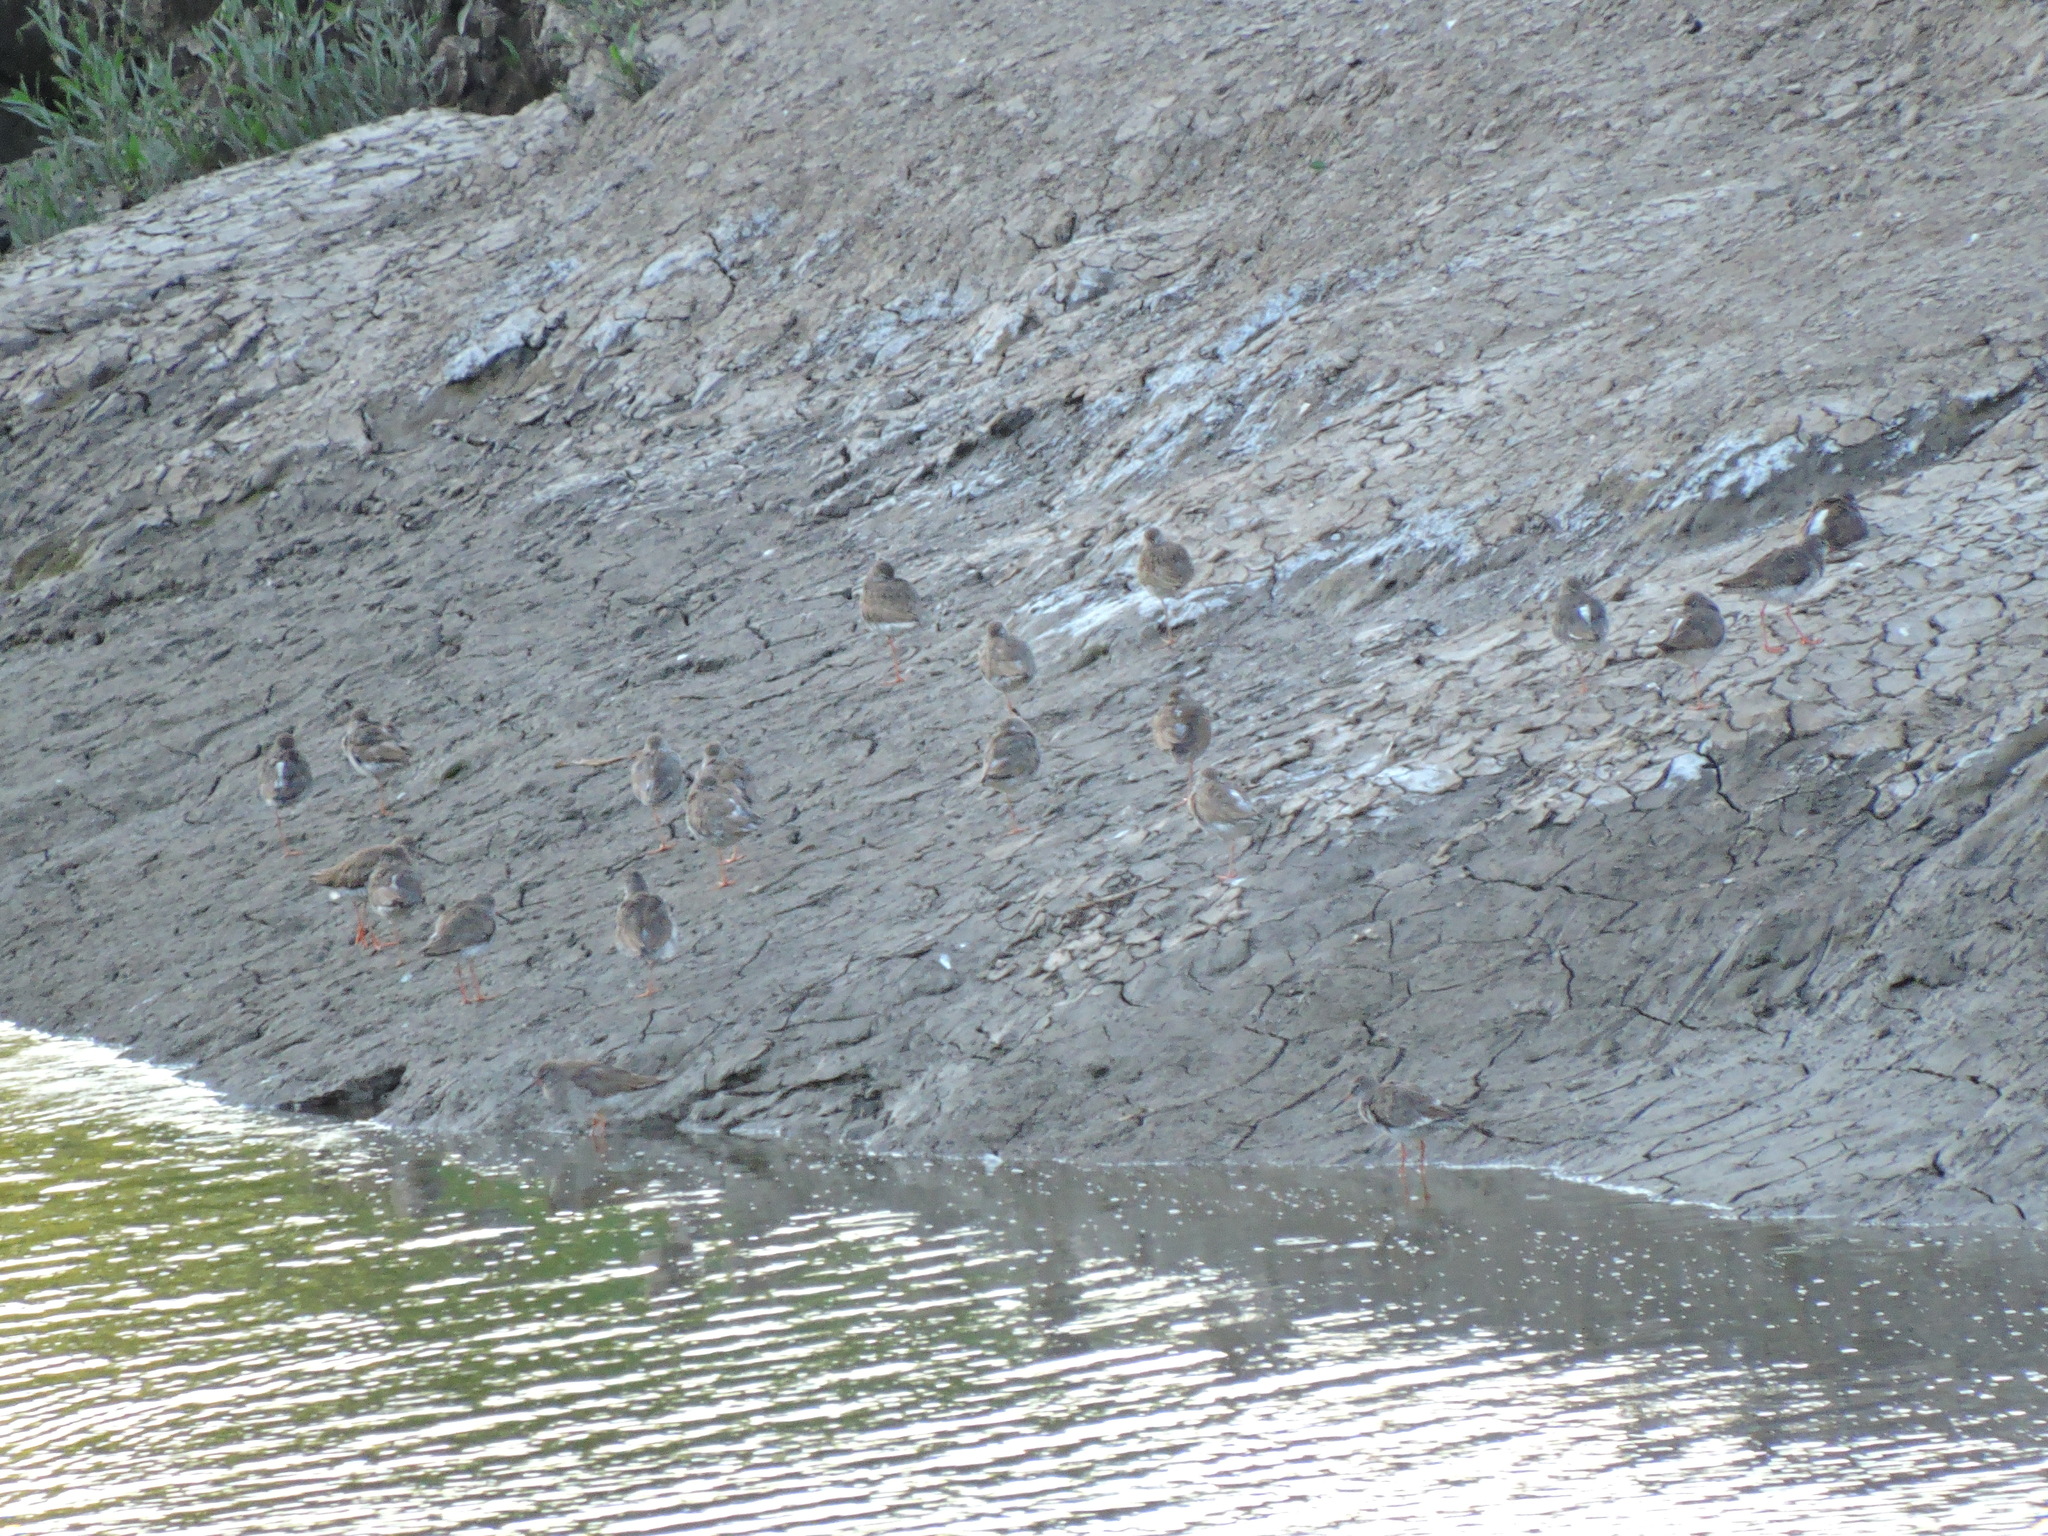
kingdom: Animalia
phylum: Chordata
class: Aves
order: Charadriiformes
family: Scolopacidae
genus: Tringa
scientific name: Tringa totanus
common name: Common redshank
